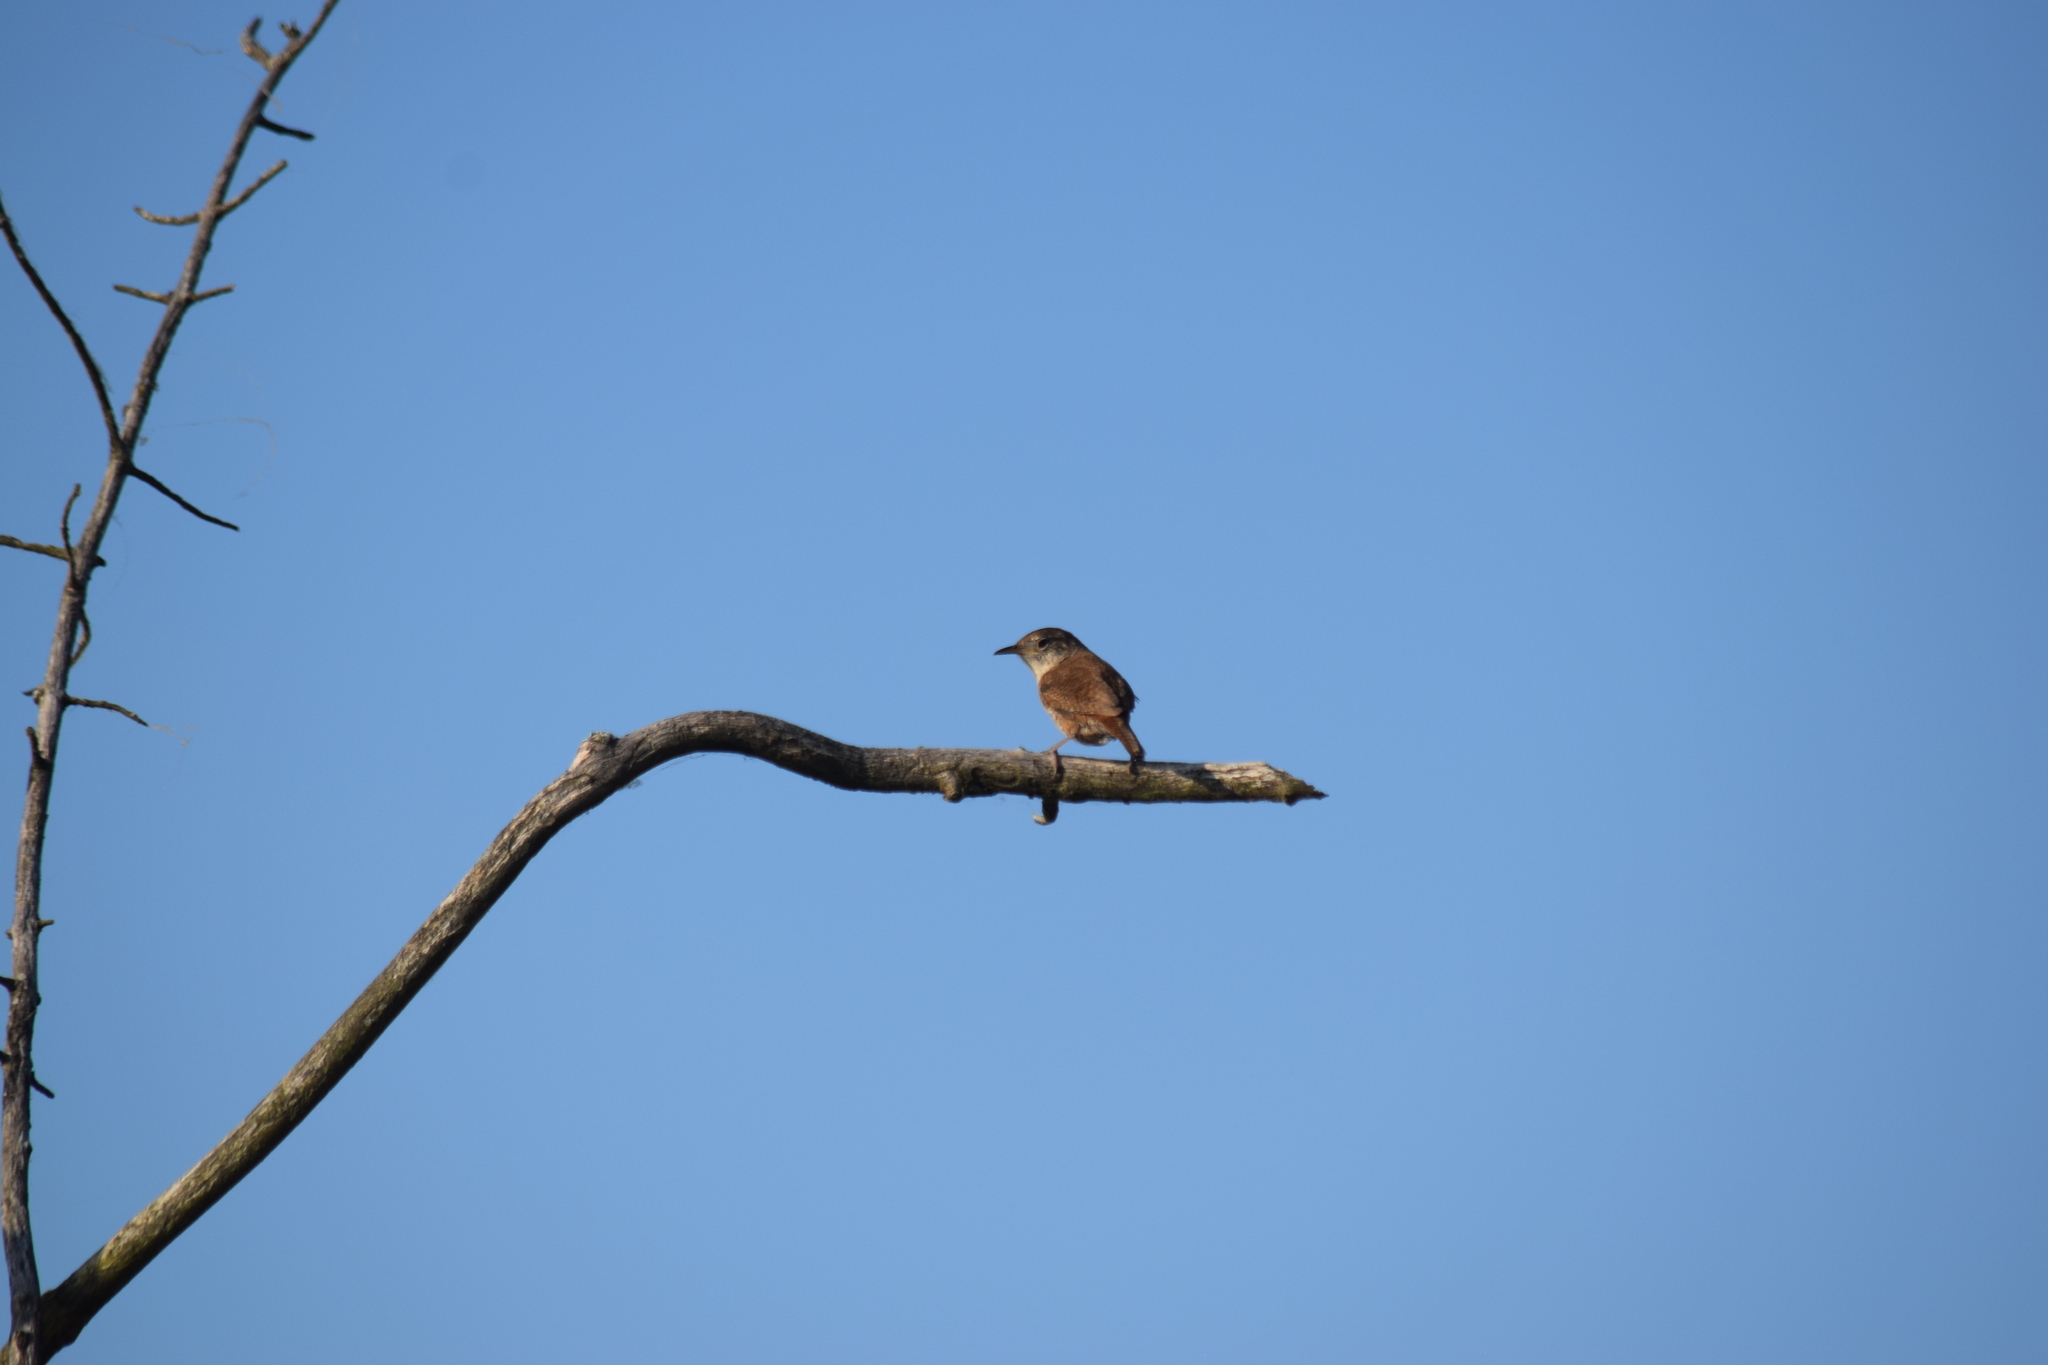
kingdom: Animalia
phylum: Chordata
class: Aves
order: Passeriformes
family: Troglodytidae
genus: Troglodytes
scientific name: Troglodytes aedon
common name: House wren
